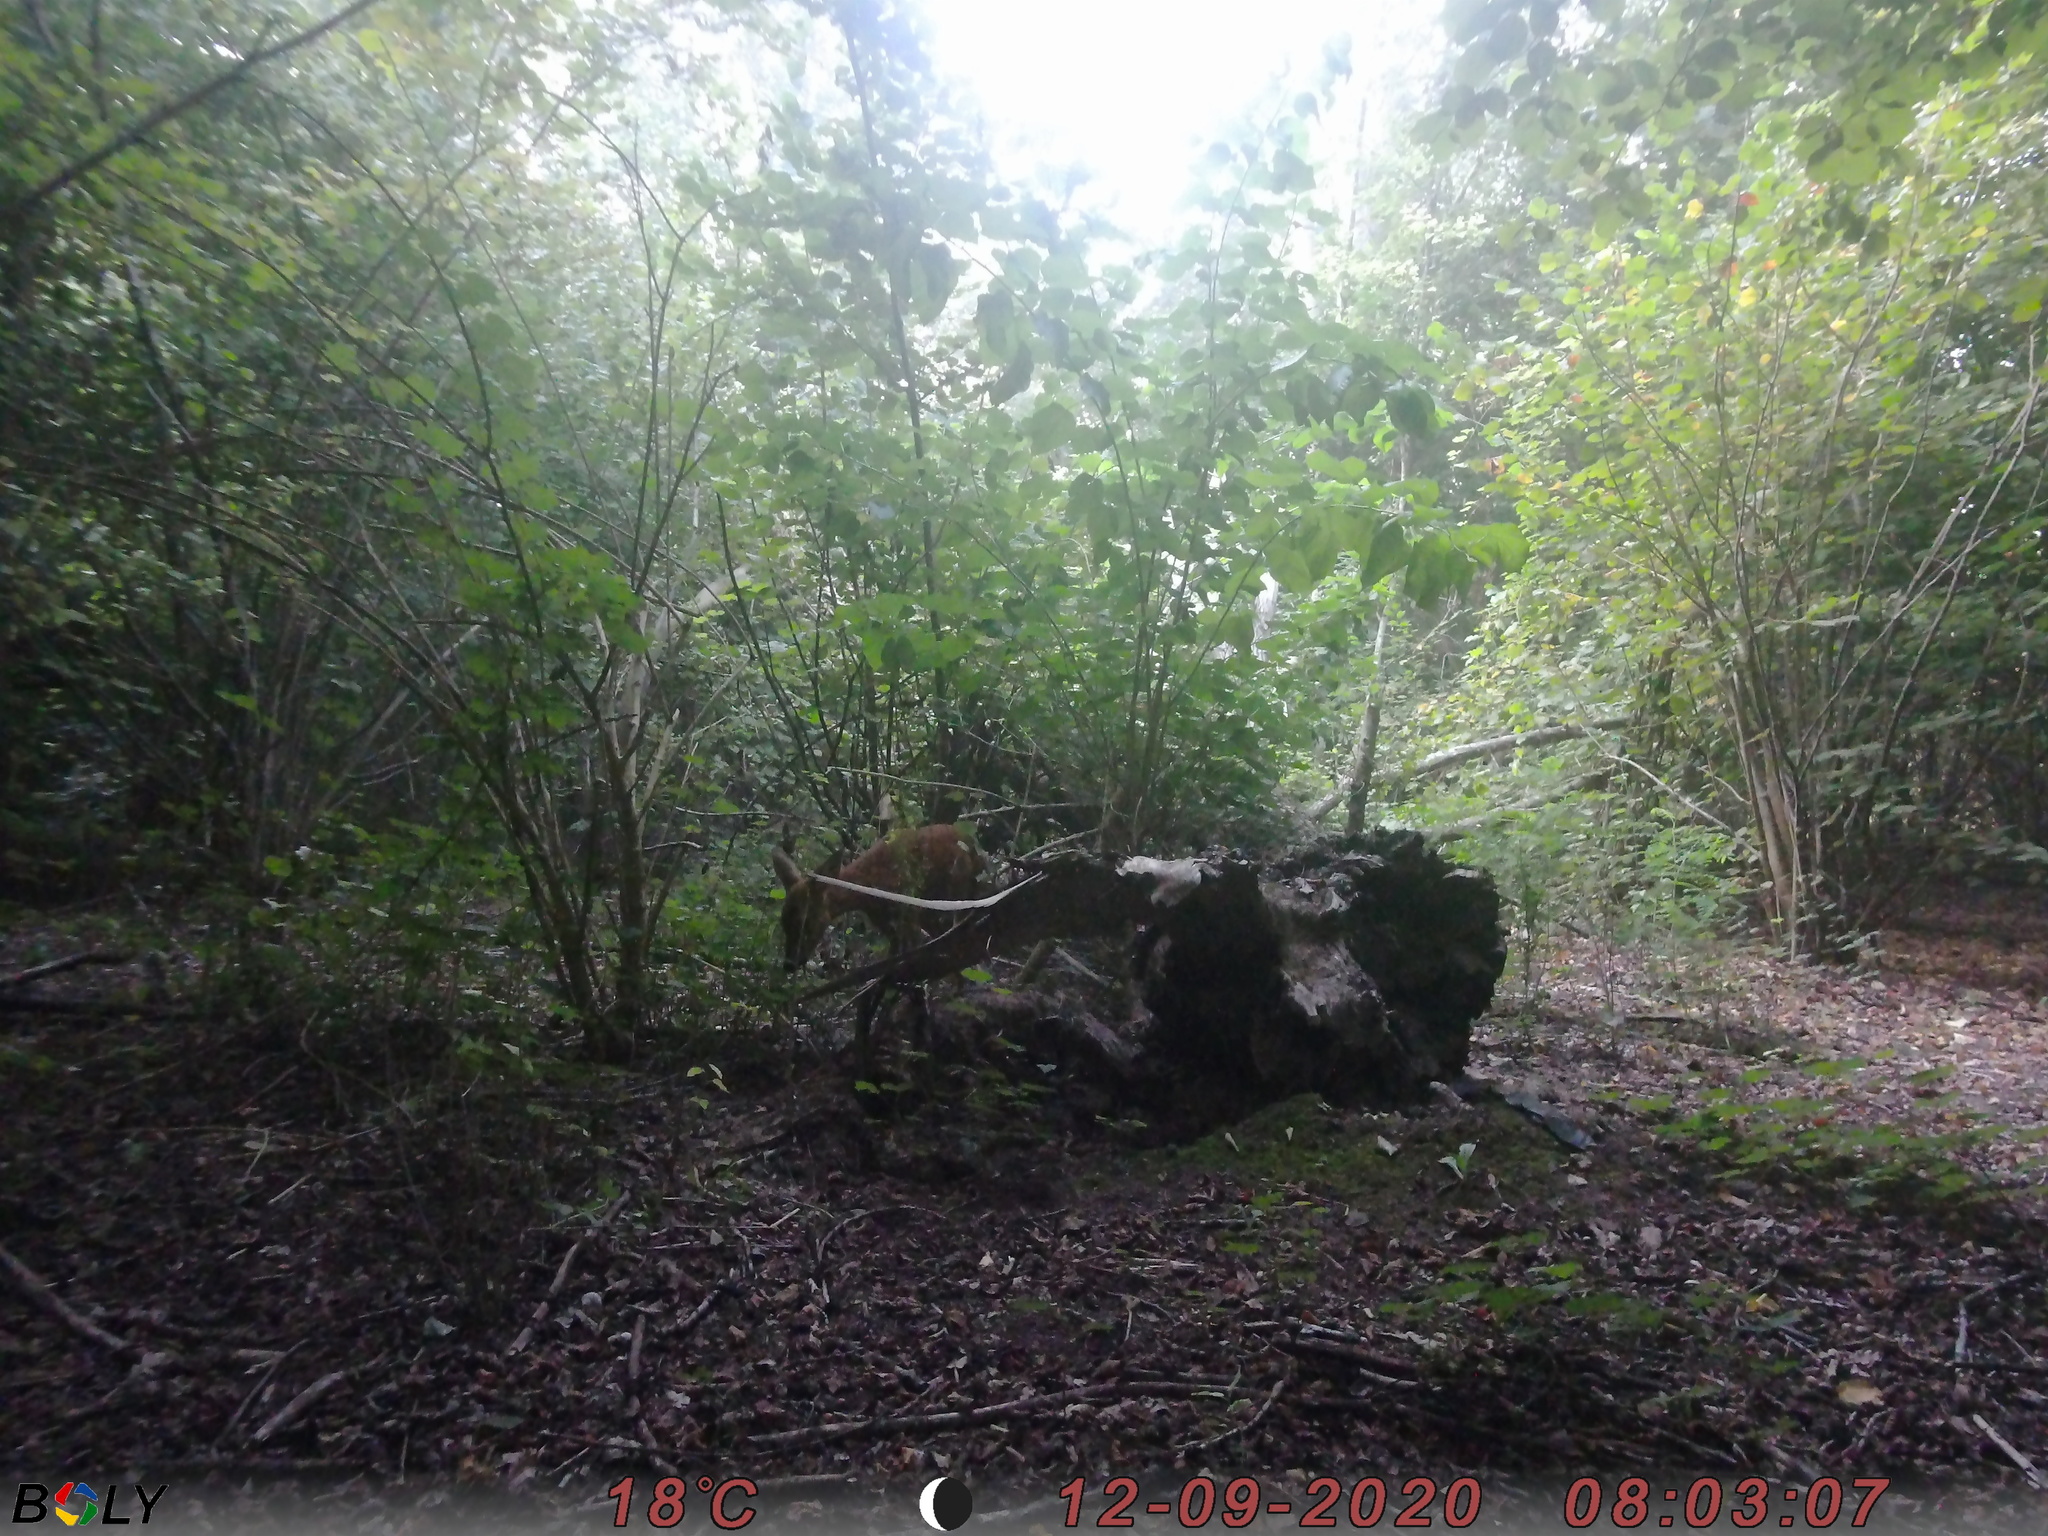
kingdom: Animalia
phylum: Chordata
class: Mammalia
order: Artiodactyla
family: Cervidae
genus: Capreolus
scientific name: Capreolus capreolus
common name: Western roe deer
